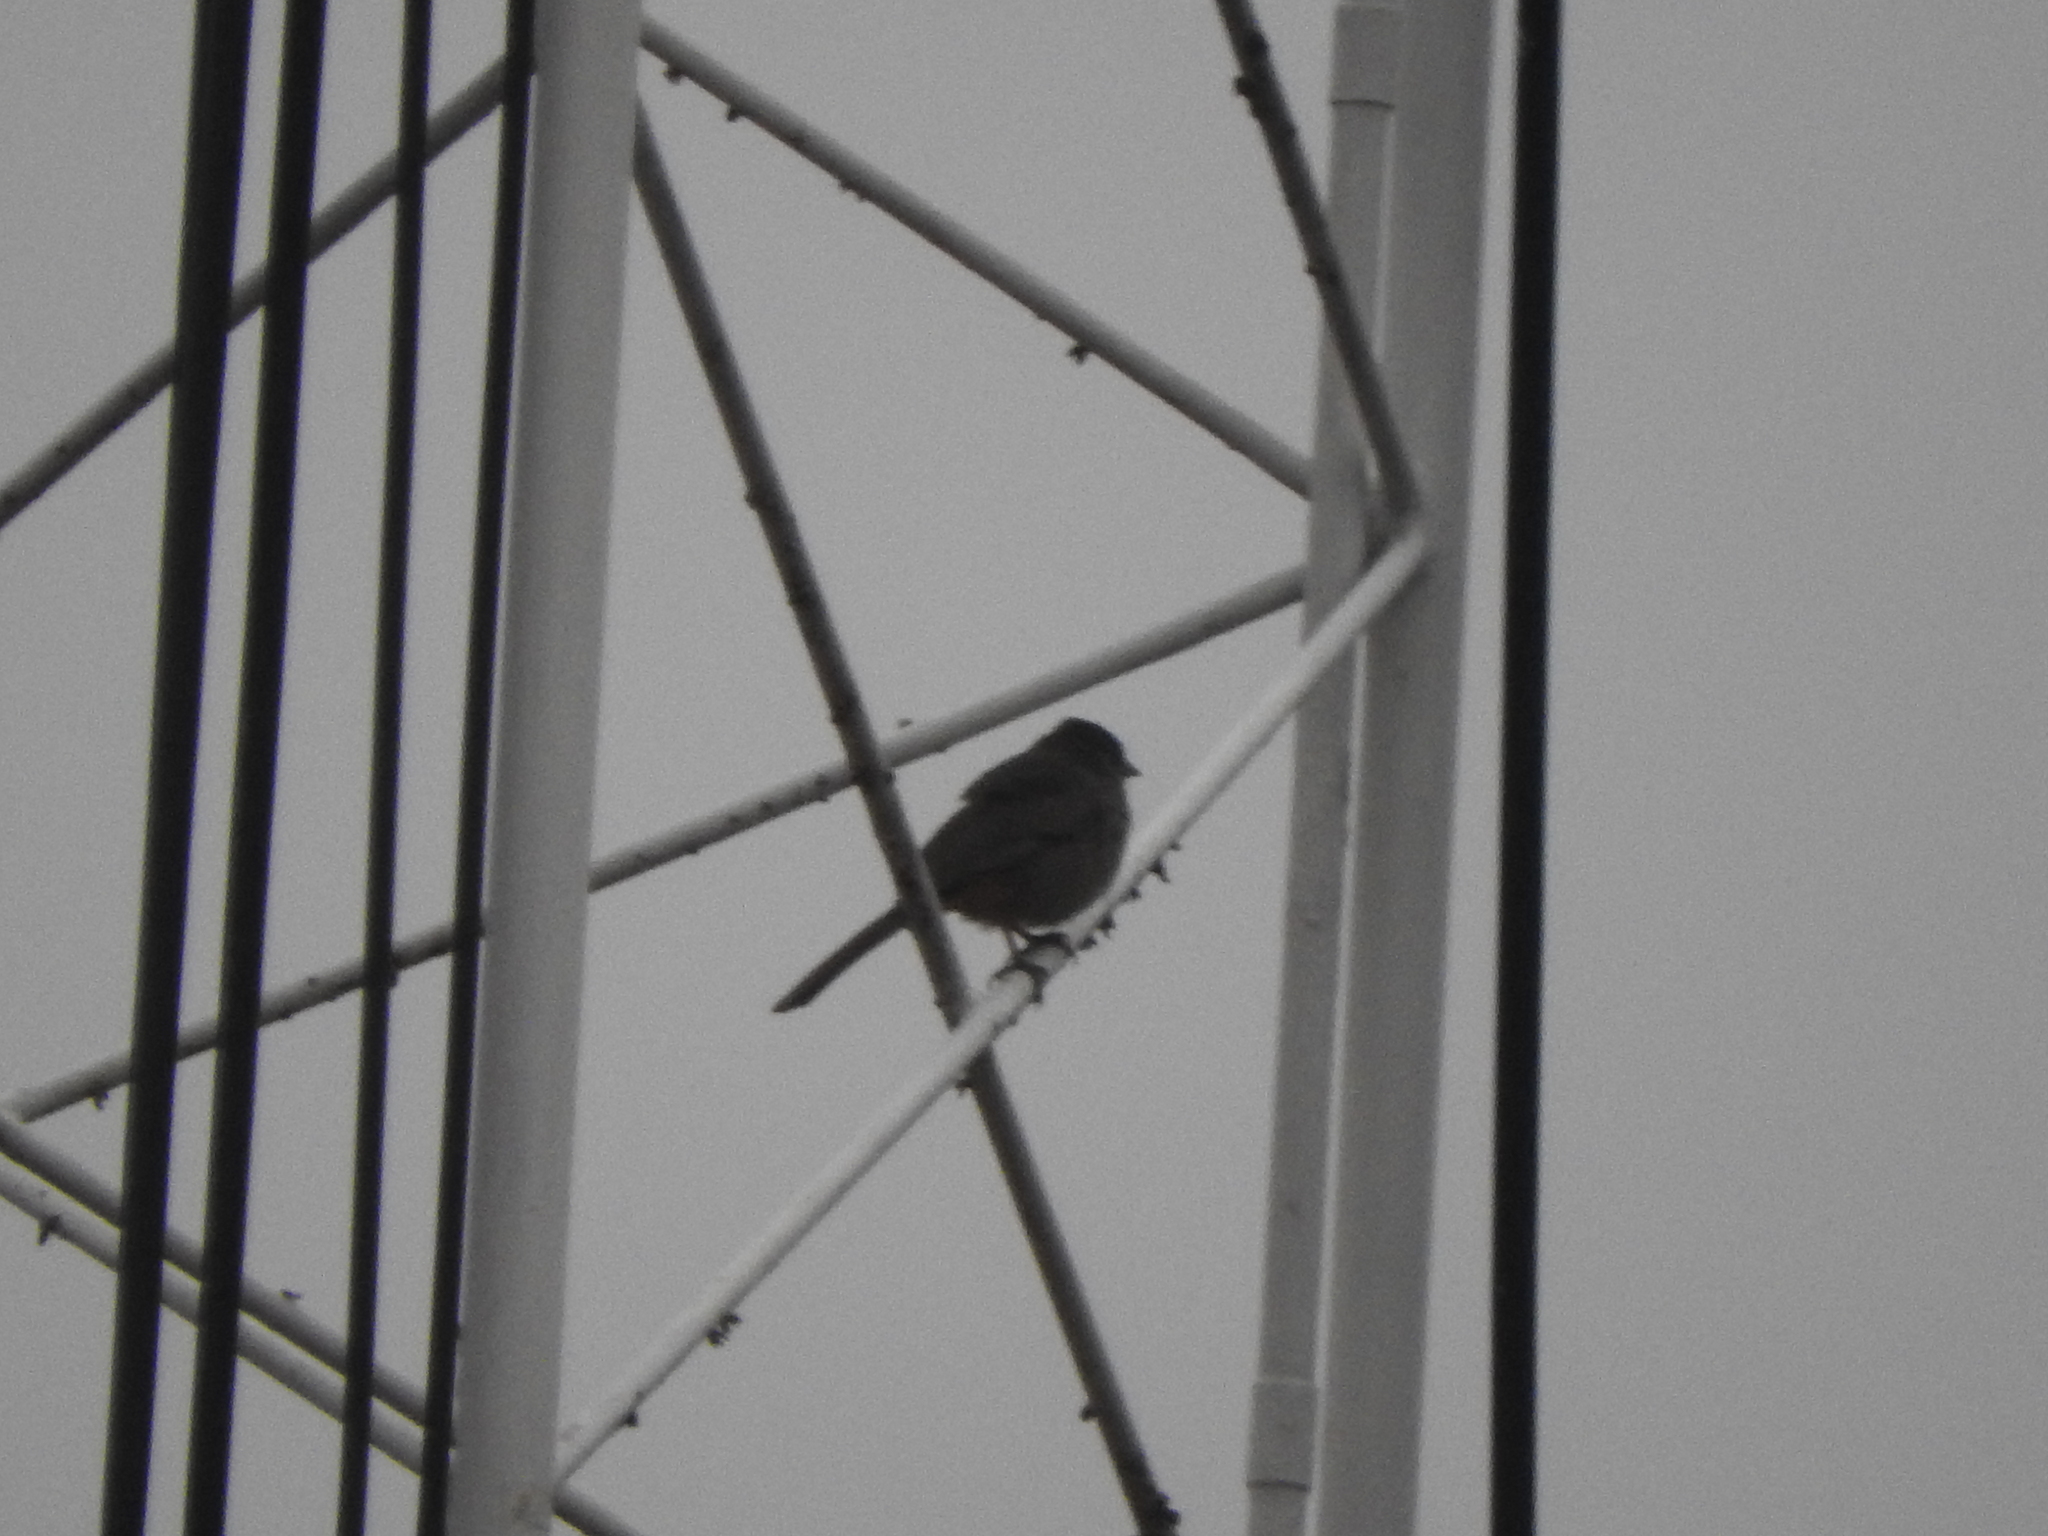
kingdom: Animalia
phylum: Chordata
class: Aves
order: Passeriformes
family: Passerellidae
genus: Melozone
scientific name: Melozone fusca
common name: Canyon towhee
